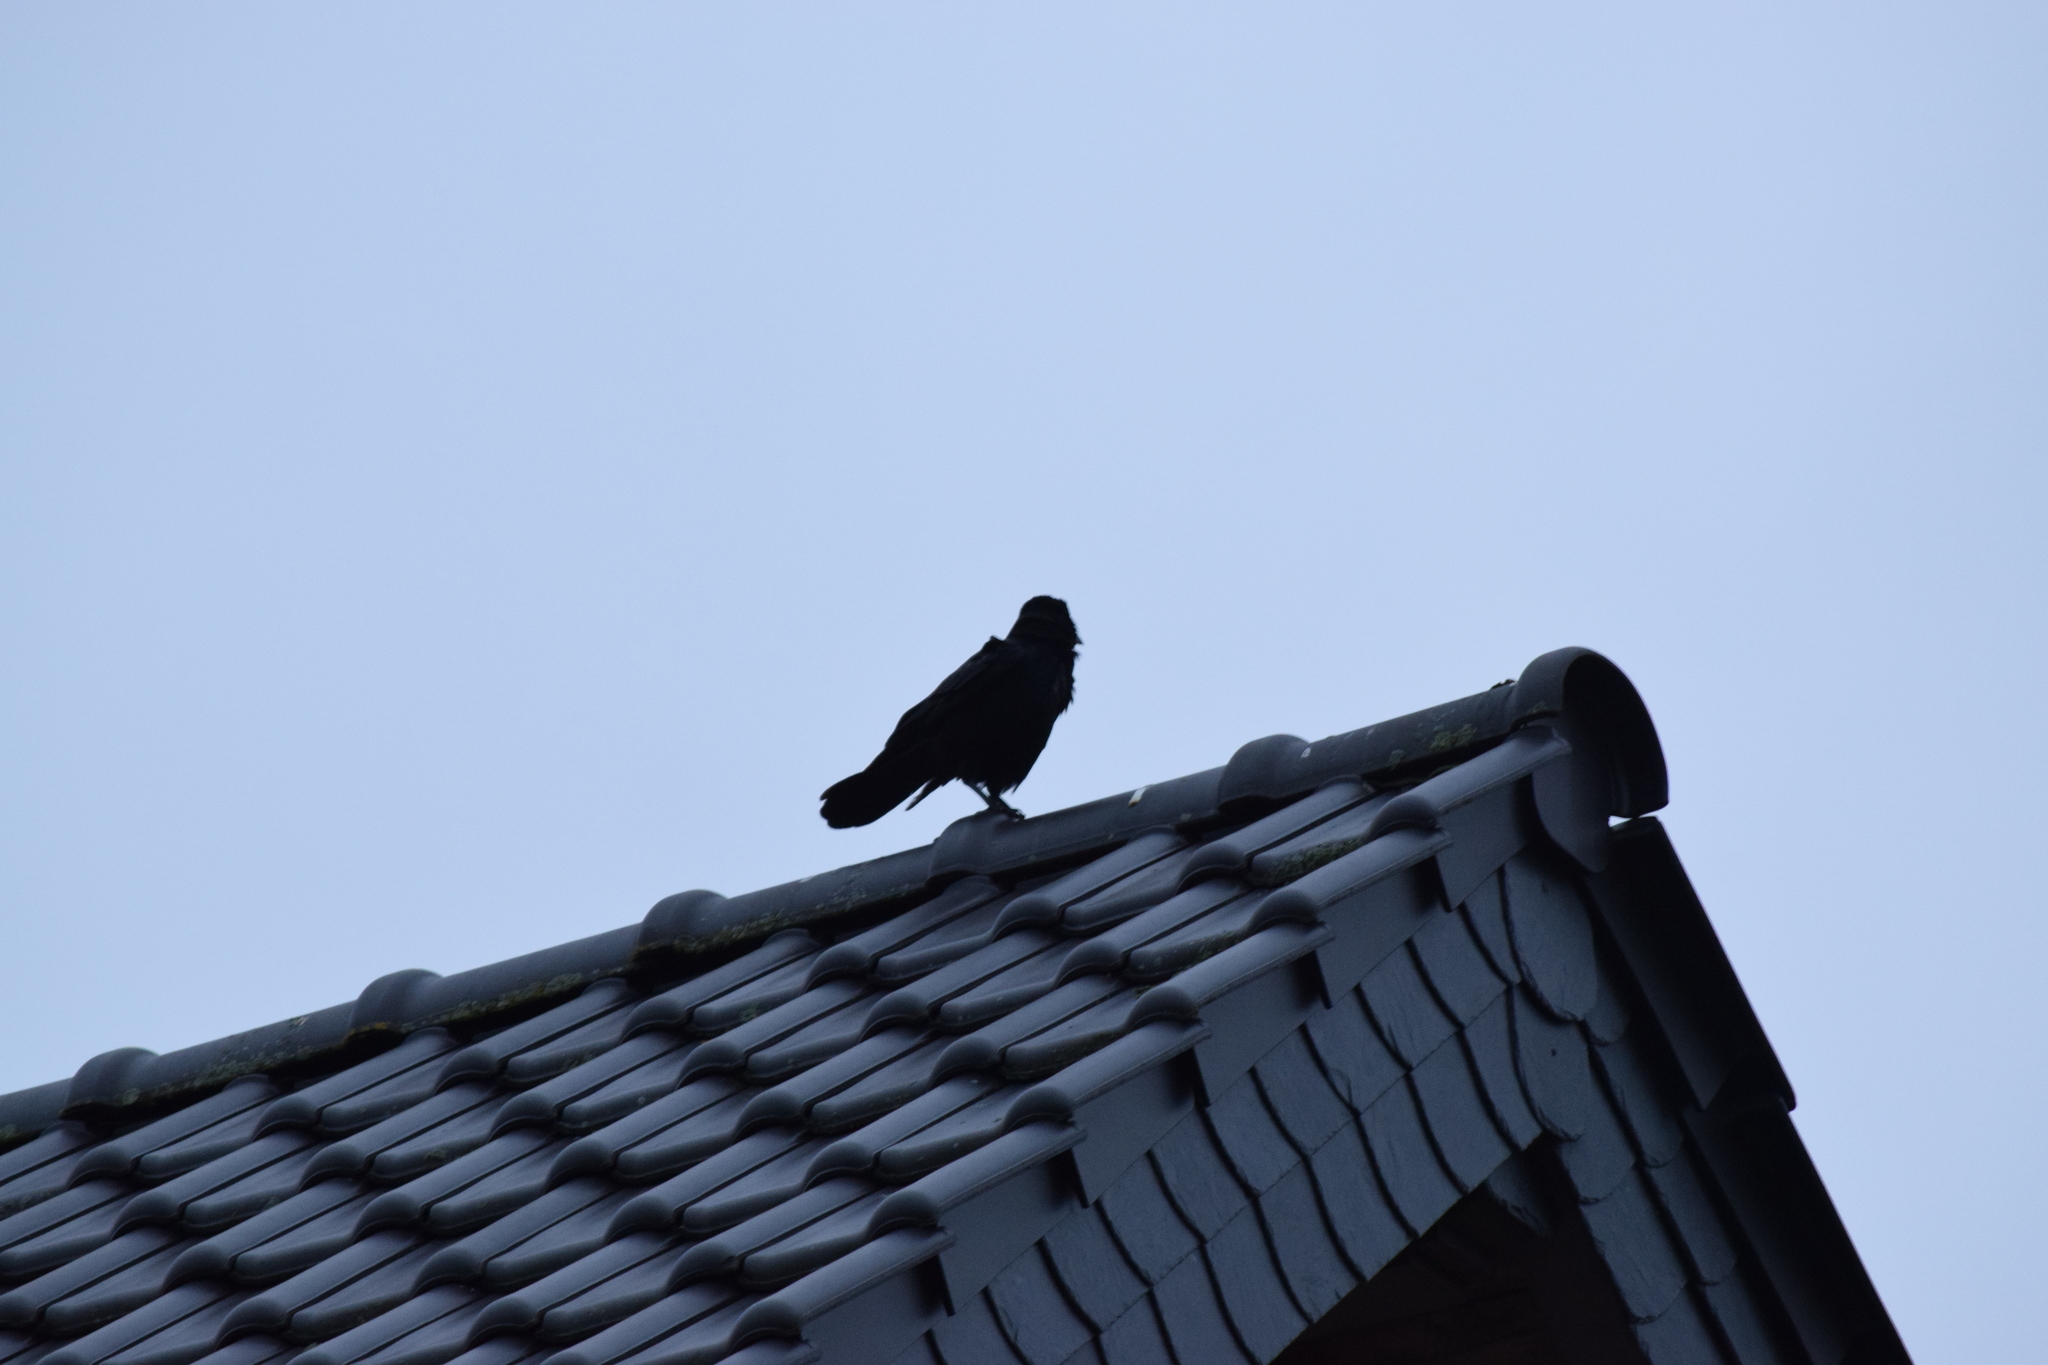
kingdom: Animalia
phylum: Chordata
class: Aves
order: Passeriformes
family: Corvidae
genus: Corvus
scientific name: Corvus corone
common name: Carrion crow
